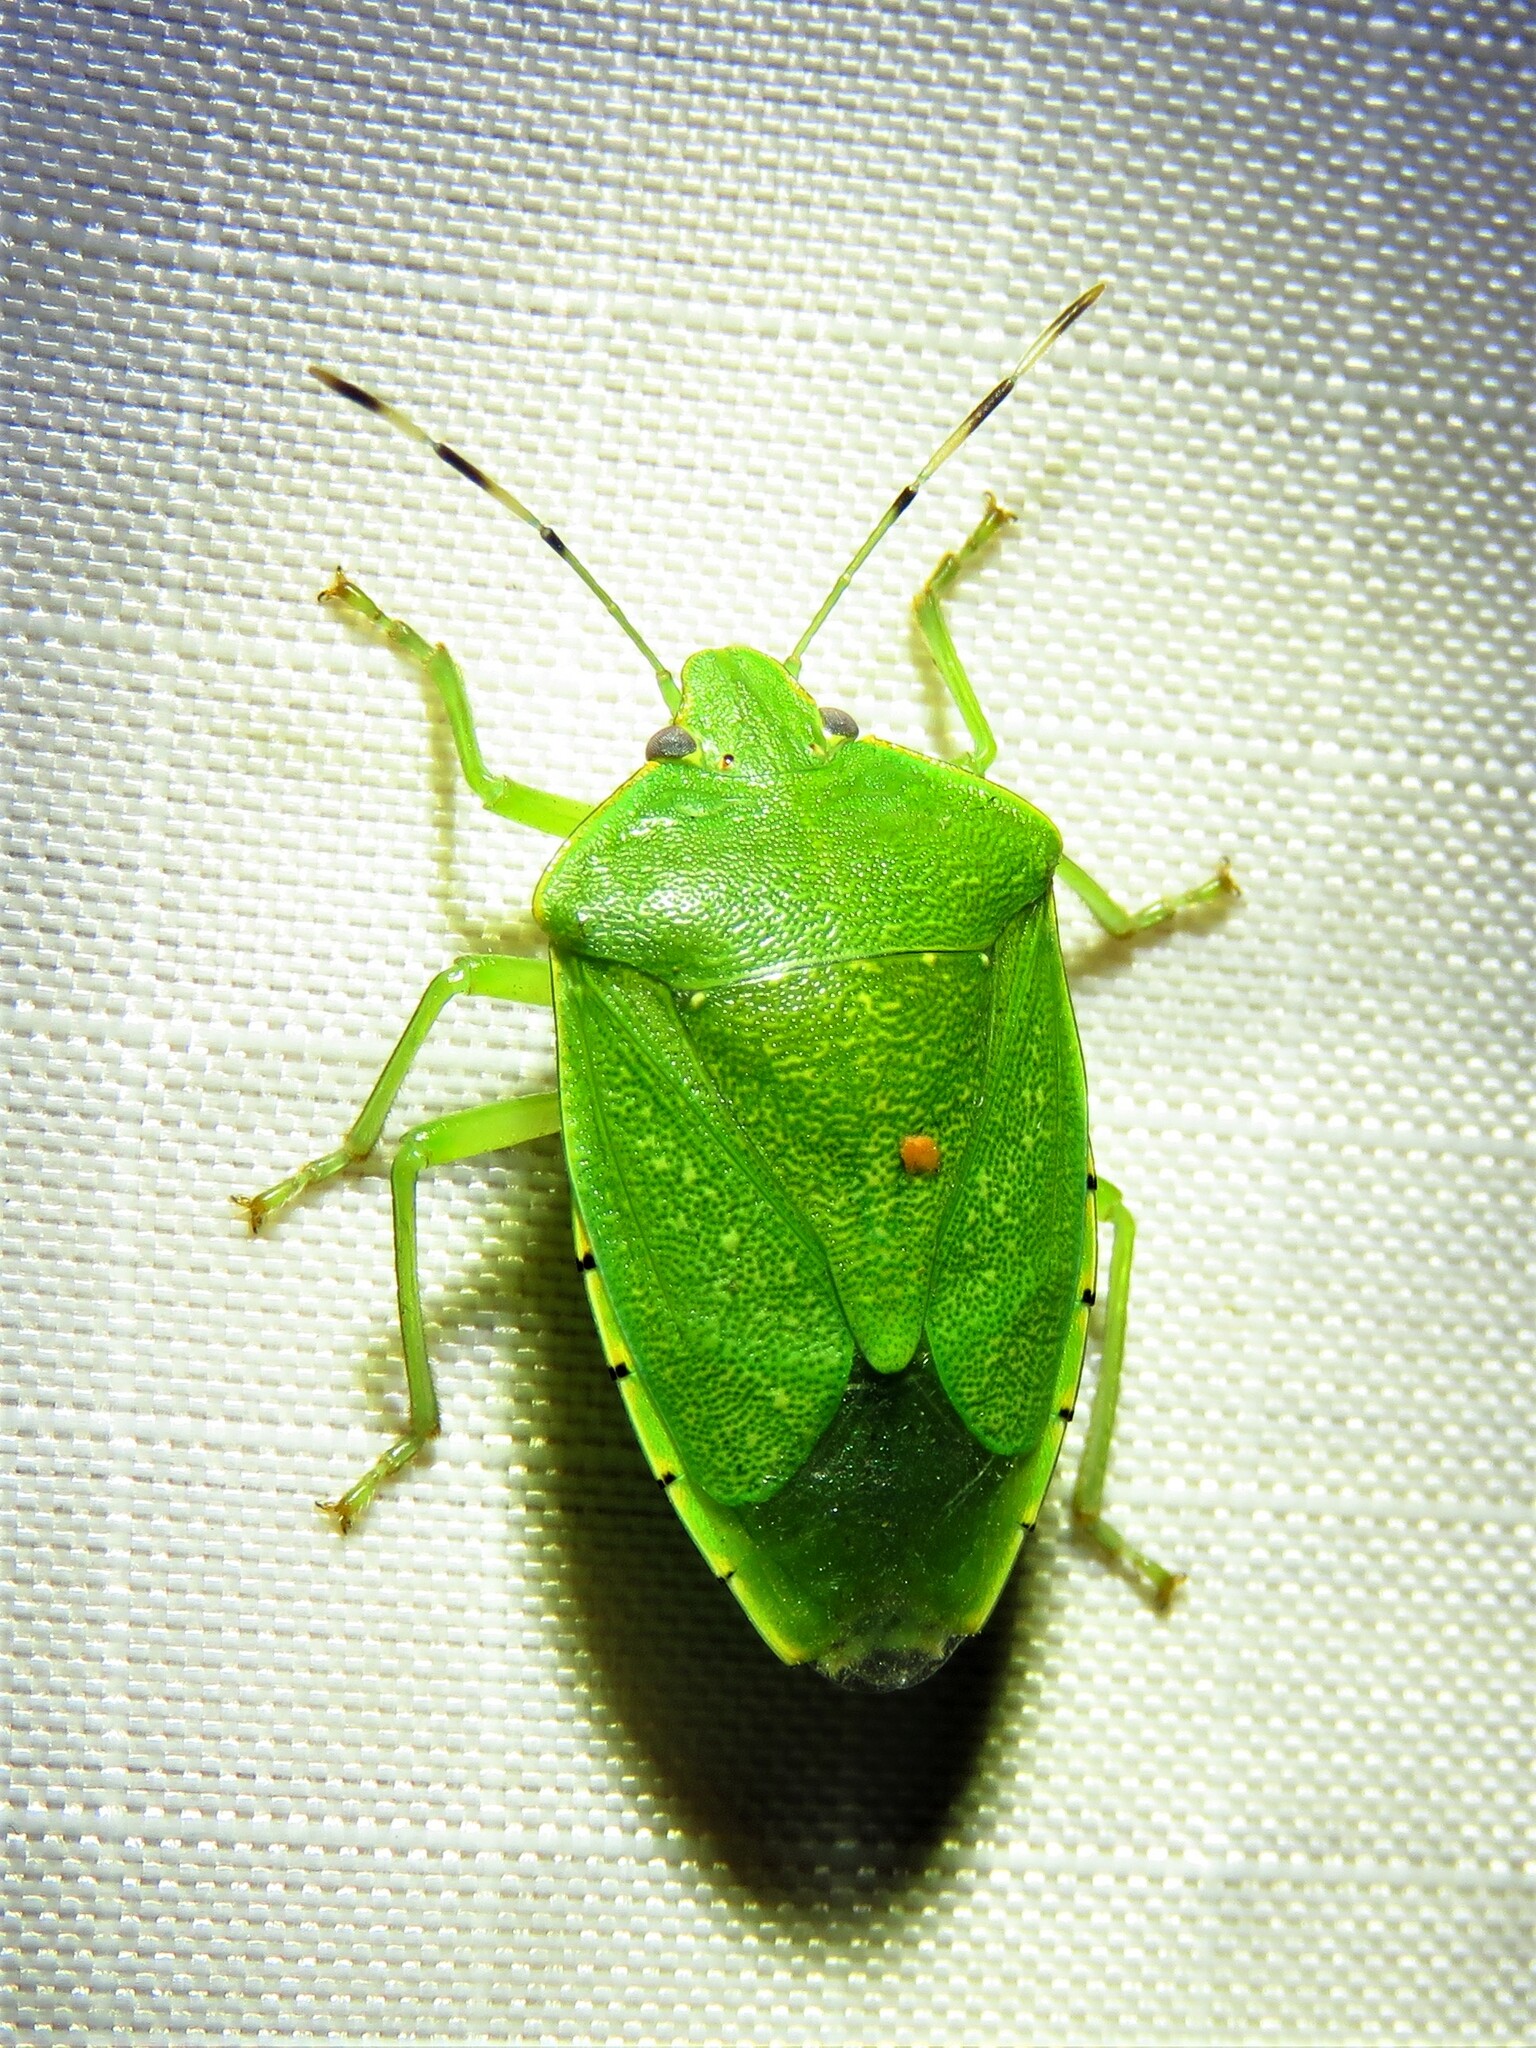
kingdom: Animalia
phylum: Arthropoda
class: Insecta
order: Hemiptera
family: Pentatomidae
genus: Chinavia
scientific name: Chinavia hilaris
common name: Green stink bug
